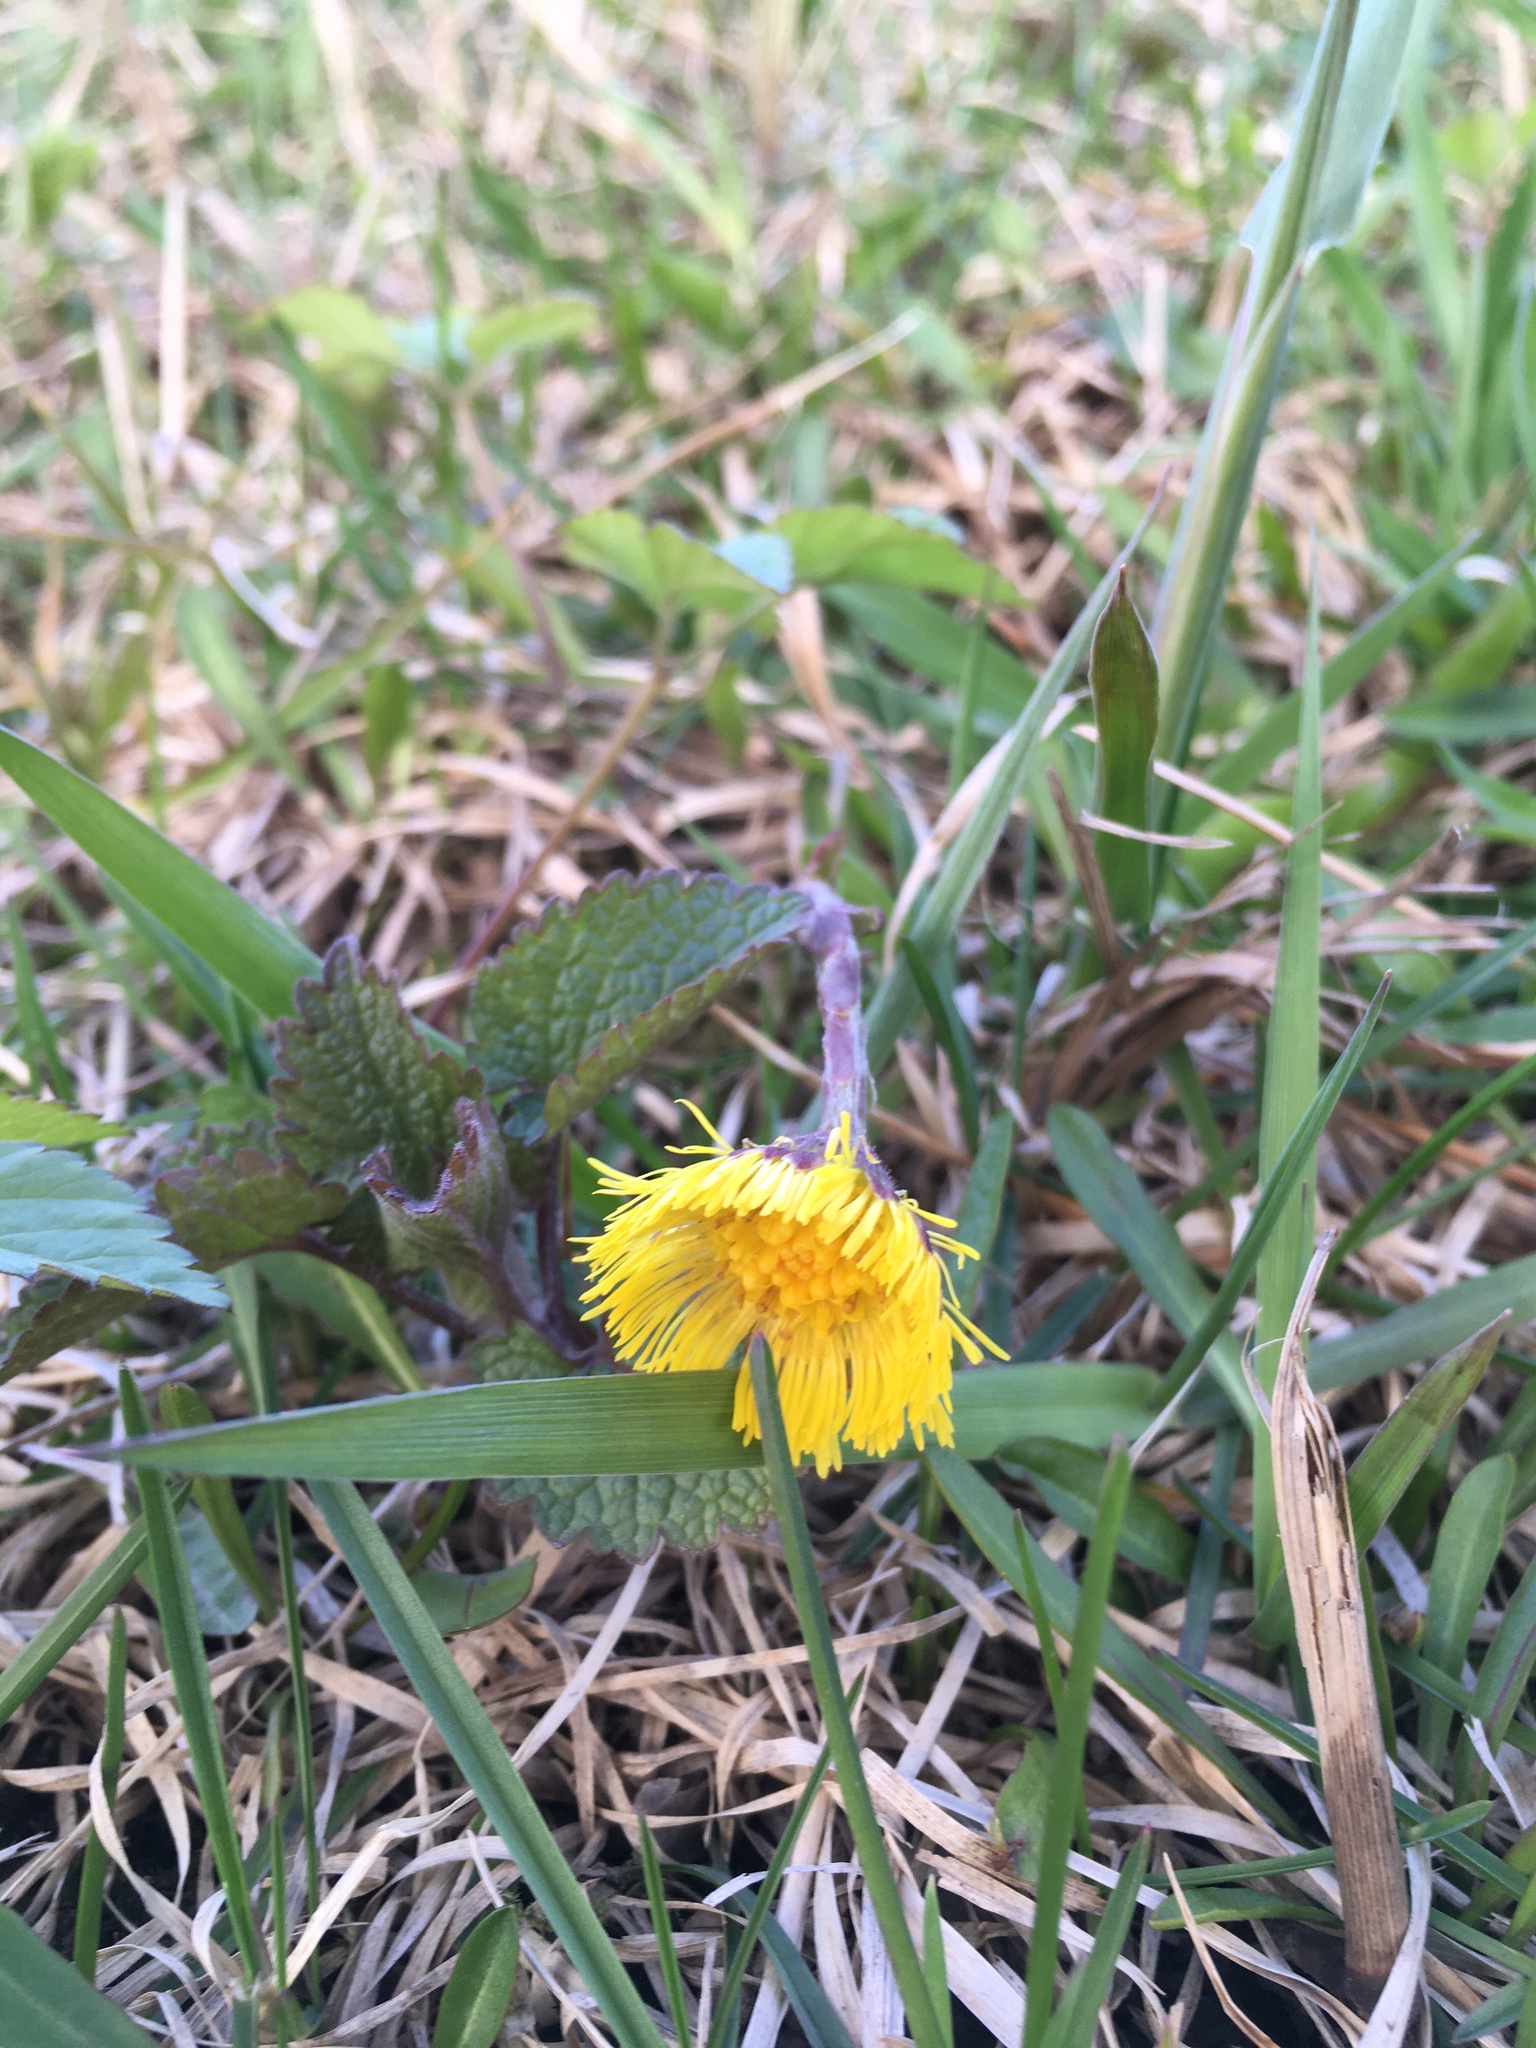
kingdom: Plantae
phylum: Tracheophyta
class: Magnoliopsida
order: Asterales
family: Asteraceae
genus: Tussilago
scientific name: Tussilago farfara
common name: Coltsfoot
